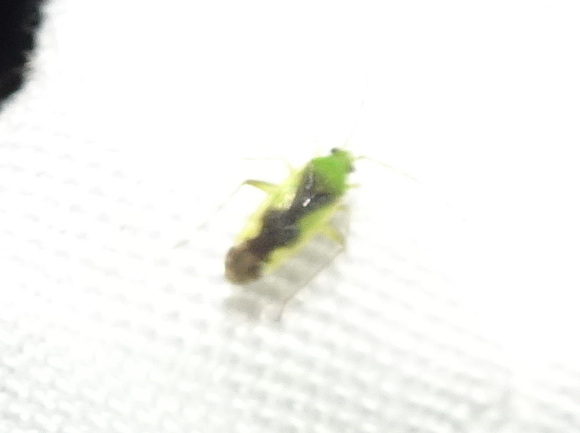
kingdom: Animalia
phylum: Arthropoda
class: Insecta
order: Hemiptera
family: Miridae
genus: Reuteroscopus
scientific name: Reuteroscopus ornatus
